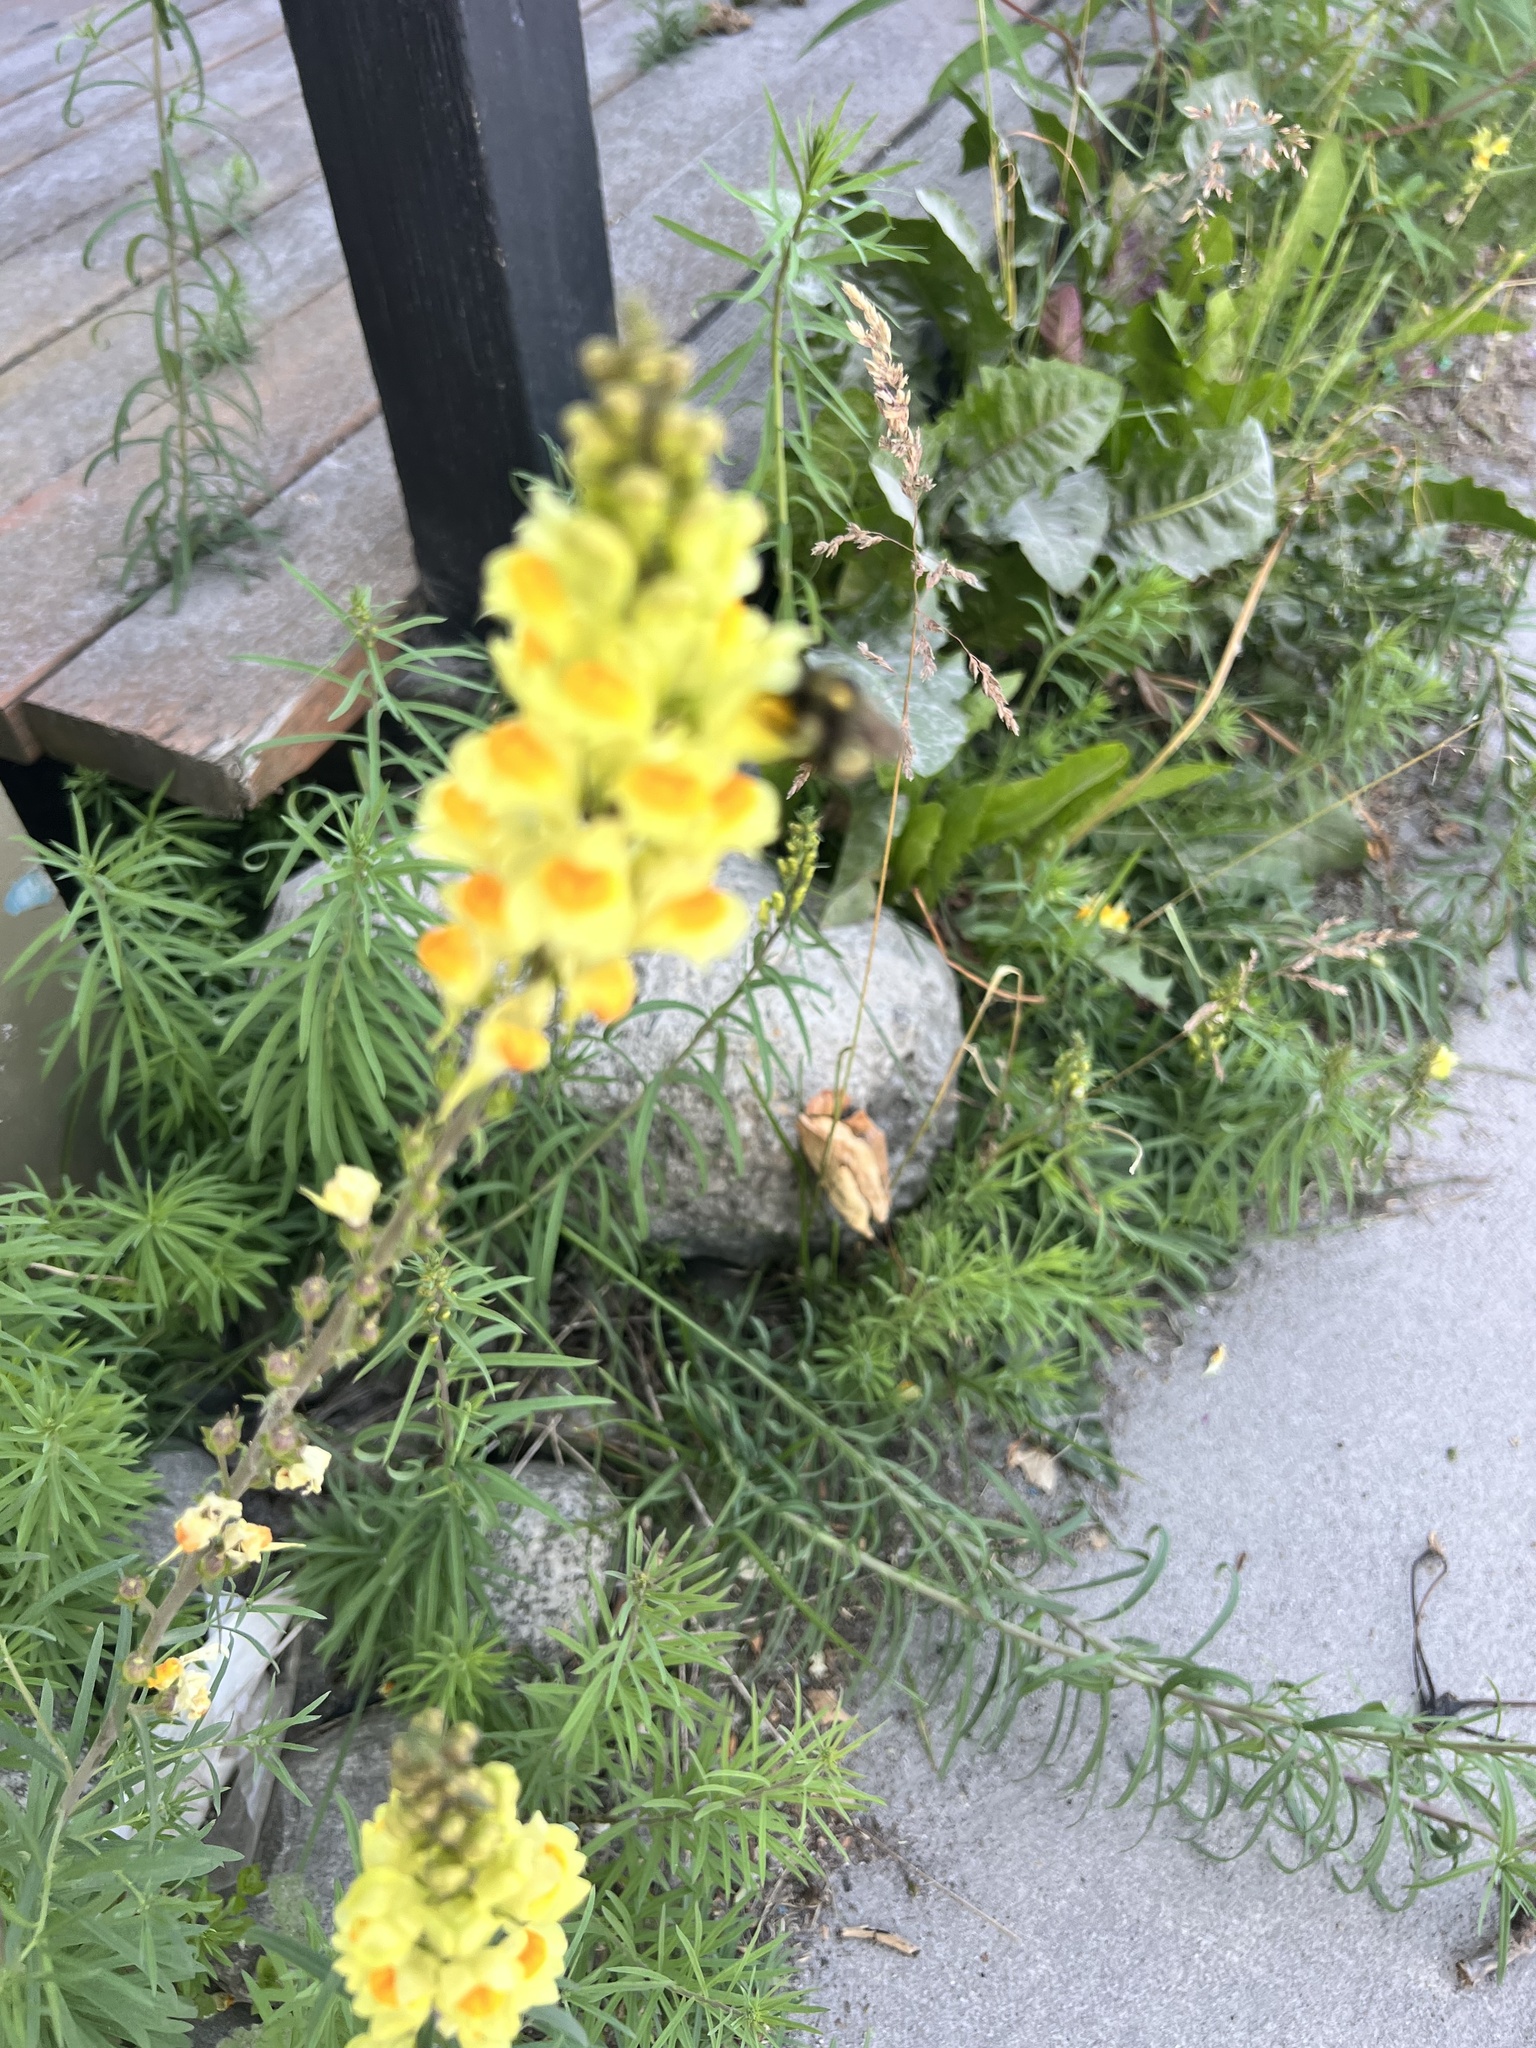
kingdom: Plantae
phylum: Tracheophyta
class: Magnoliopsida
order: Lamiales
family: Plantaginaceae
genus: Linaria
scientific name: Linaria vulgaris
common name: Butter and eggs
